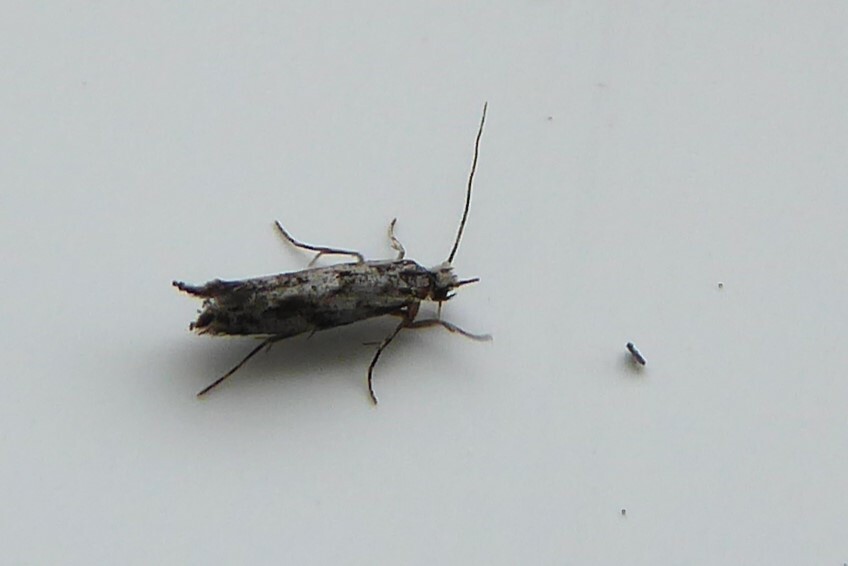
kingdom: Animalia
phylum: Arthropoda
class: Insecta
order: Lepidoptera
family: Glyphipterigidae
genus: Chrysorthenches
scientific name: Chrysorthenches porphyritis
